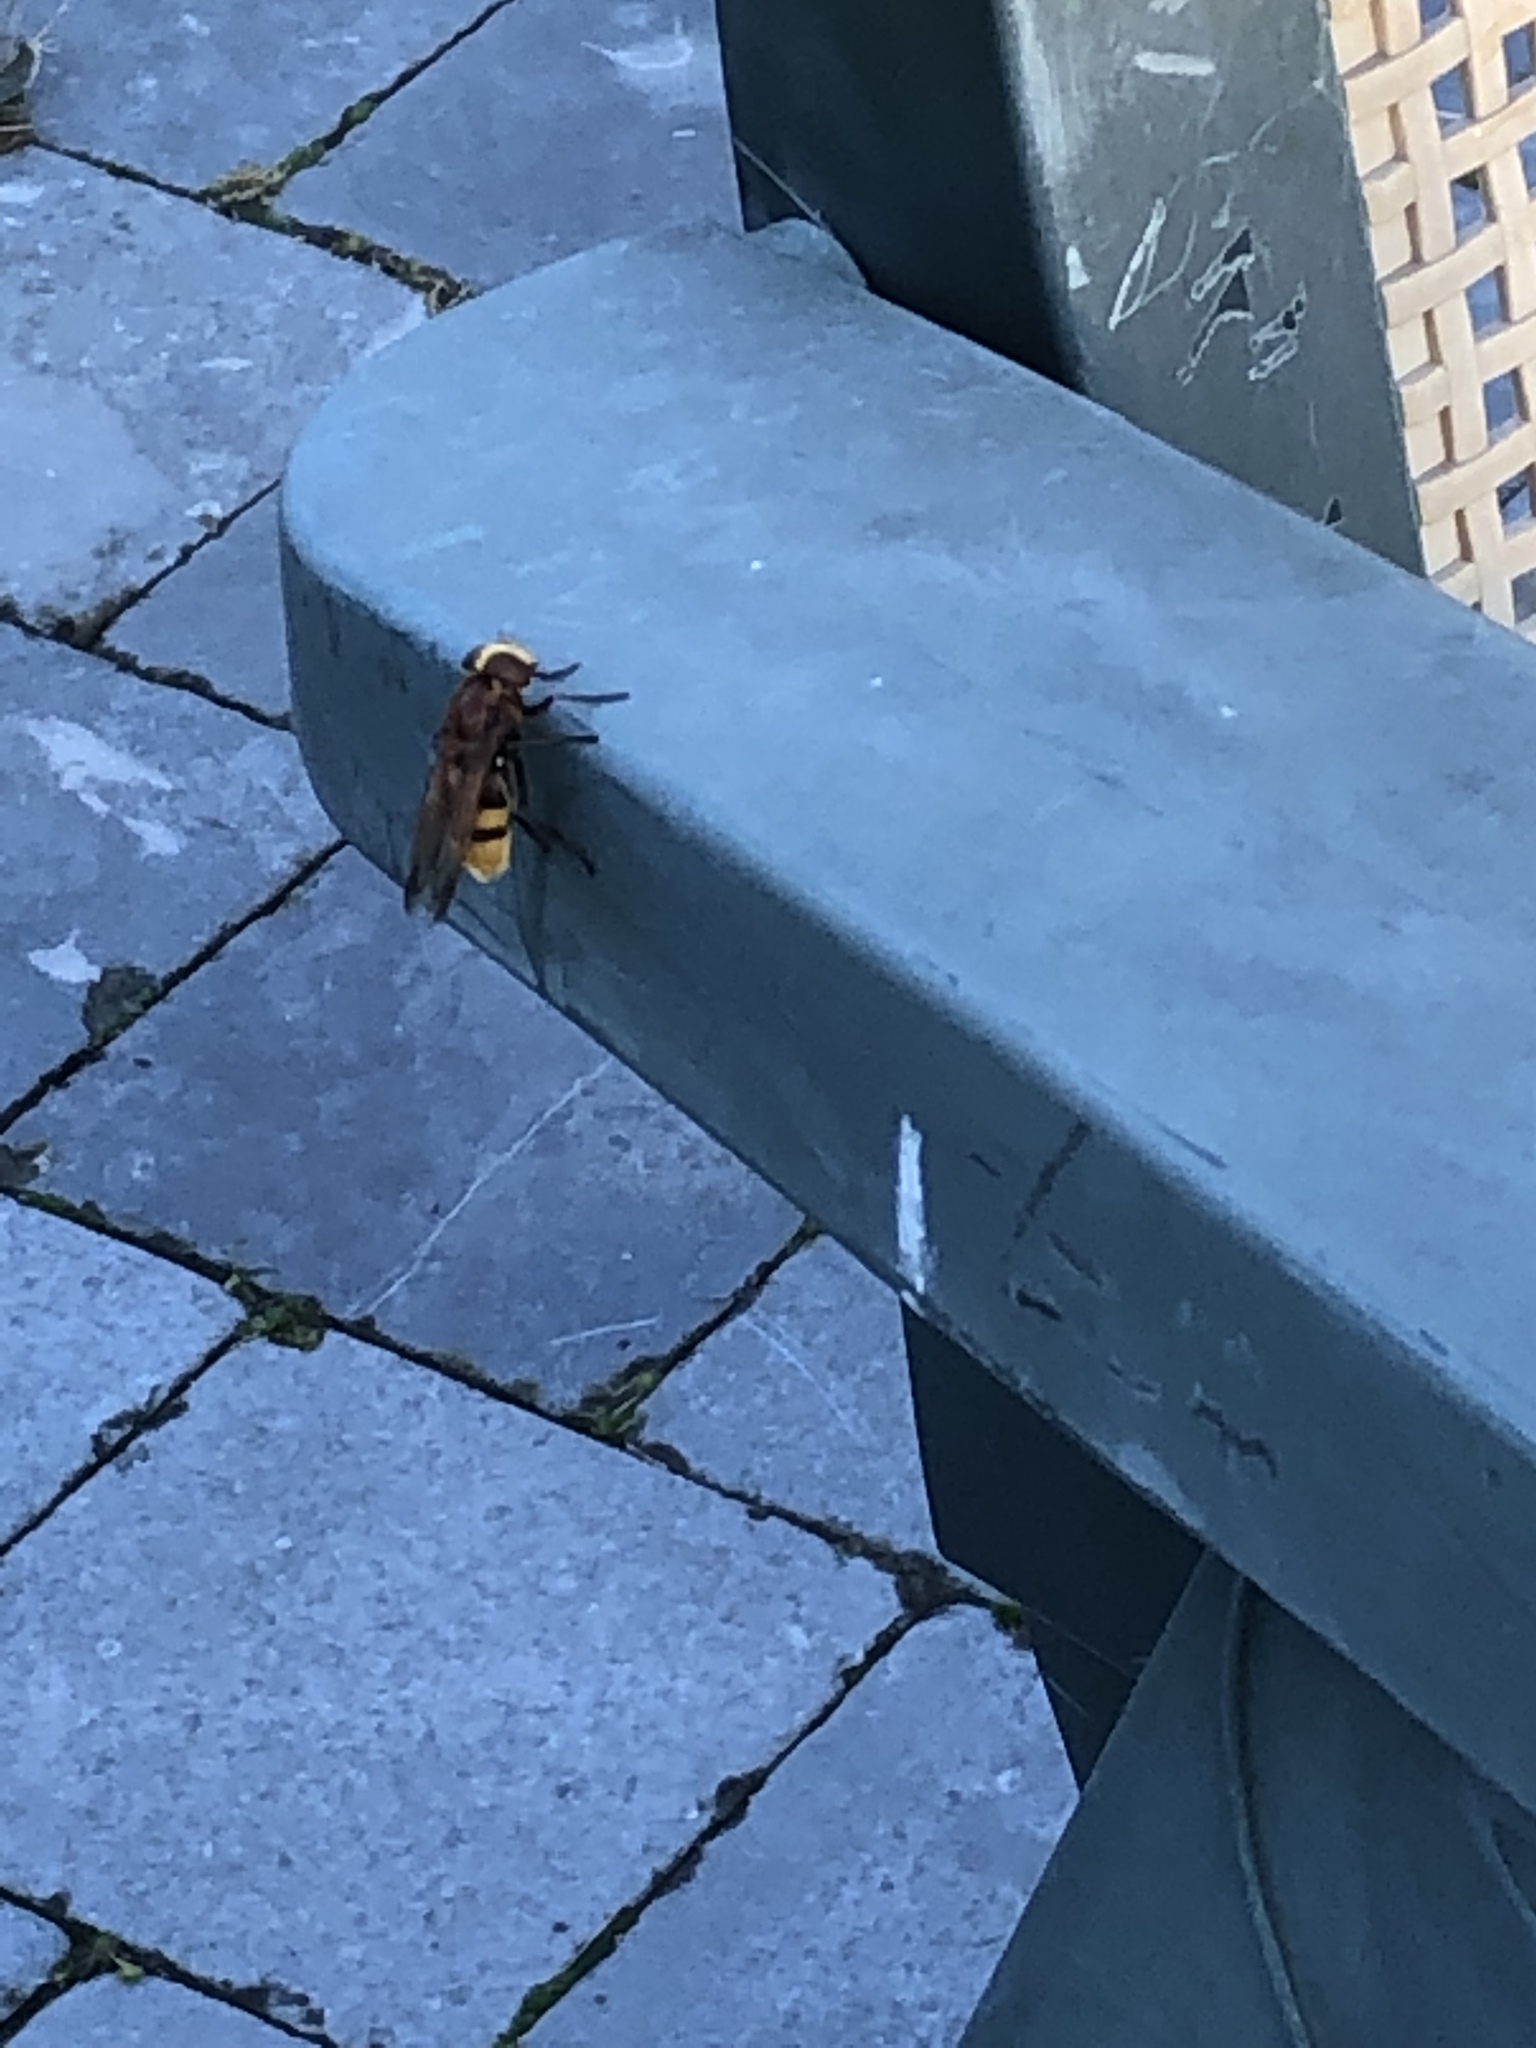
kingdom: Animalia
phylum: Arthropoda
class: Insecta
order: Diptera
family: Syrphidae
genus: Volucella
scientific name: Volucella zonaria
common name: Hornet hoverfly
